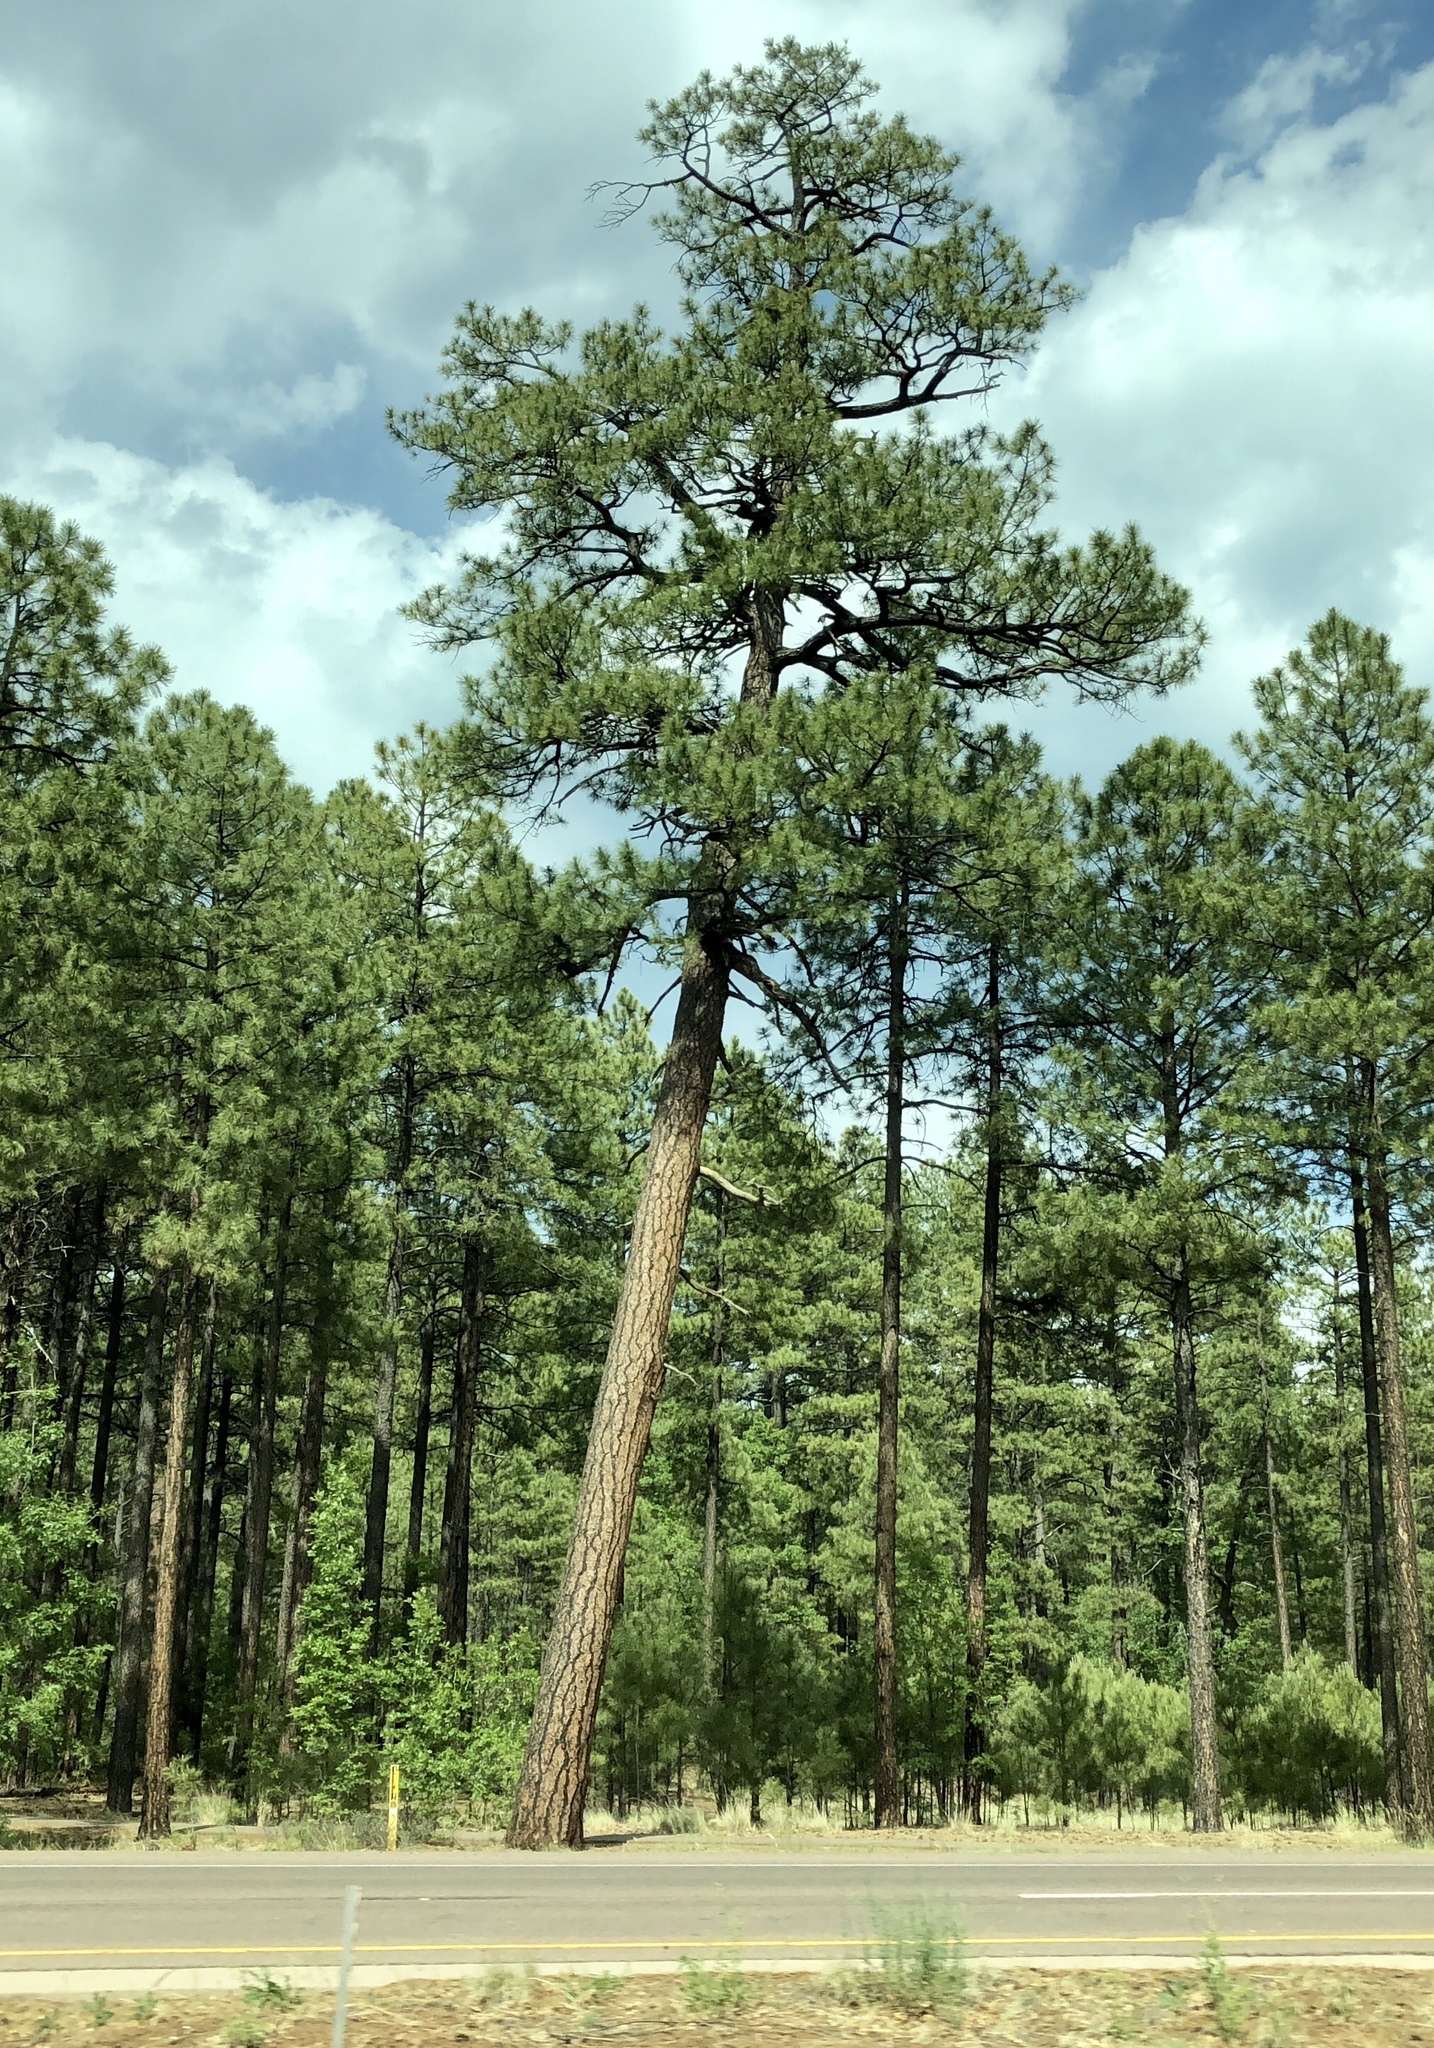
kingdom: Plantae
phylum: Tracheophyta
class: Pinopsida
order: Pinales
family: Pinaceae
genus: Pinus
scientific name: Pinus ponderosa
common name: Western yellow-pine
